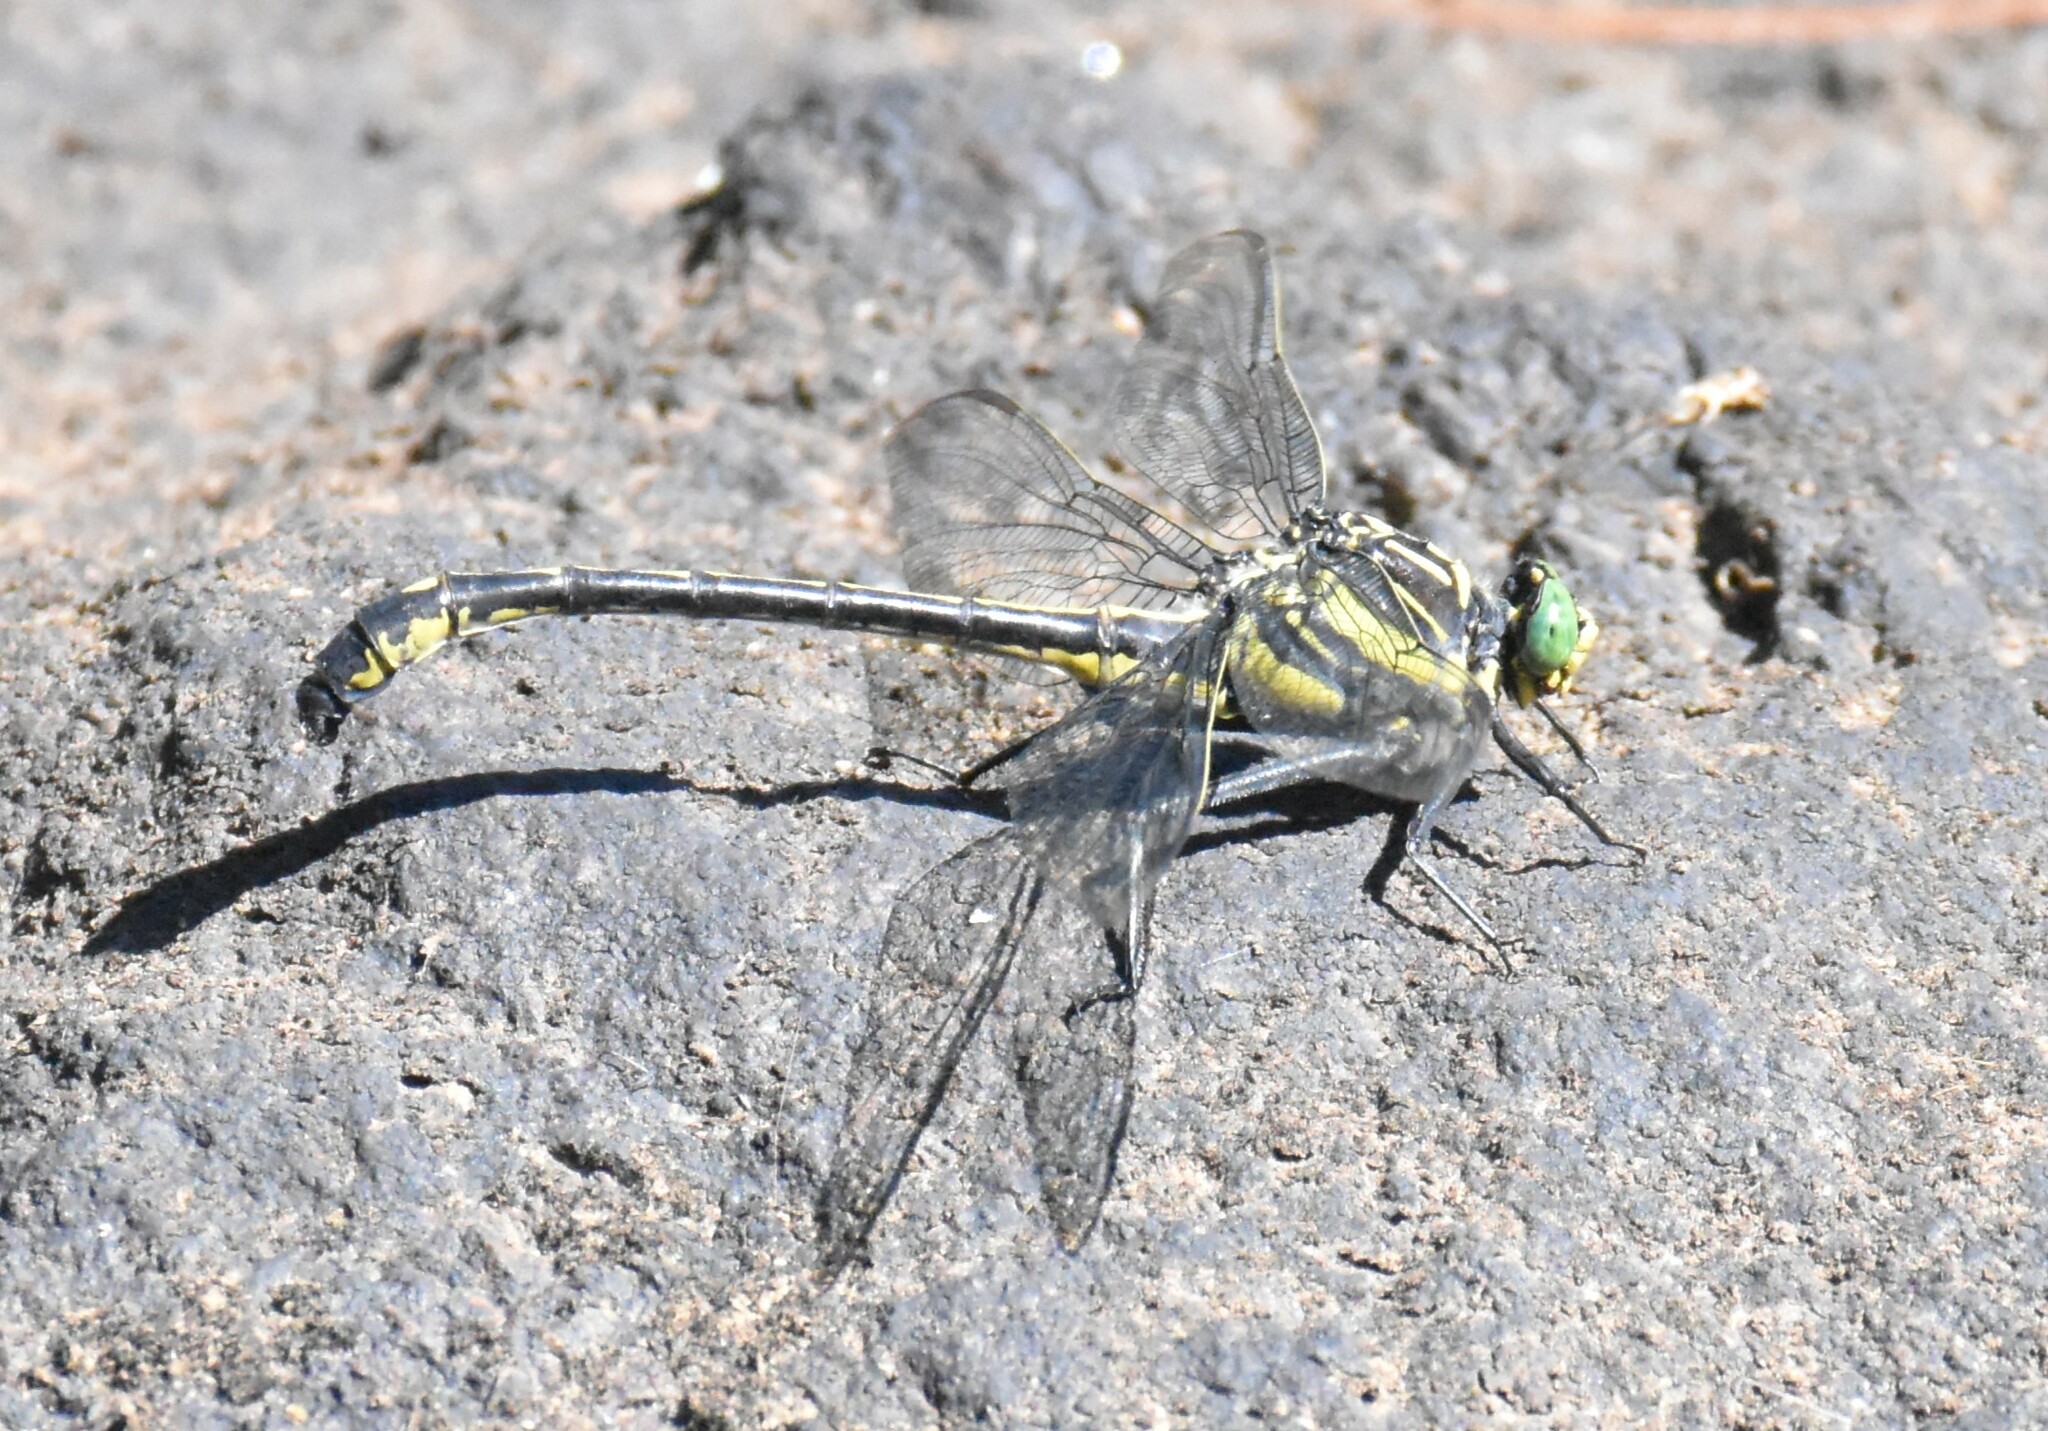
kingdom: Animalia
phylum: Arthropoda
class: Insecta
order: Odonata
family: Gomphidae
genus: Hagenius
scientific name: Hagenius brevistylus
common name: Dragonhunter
